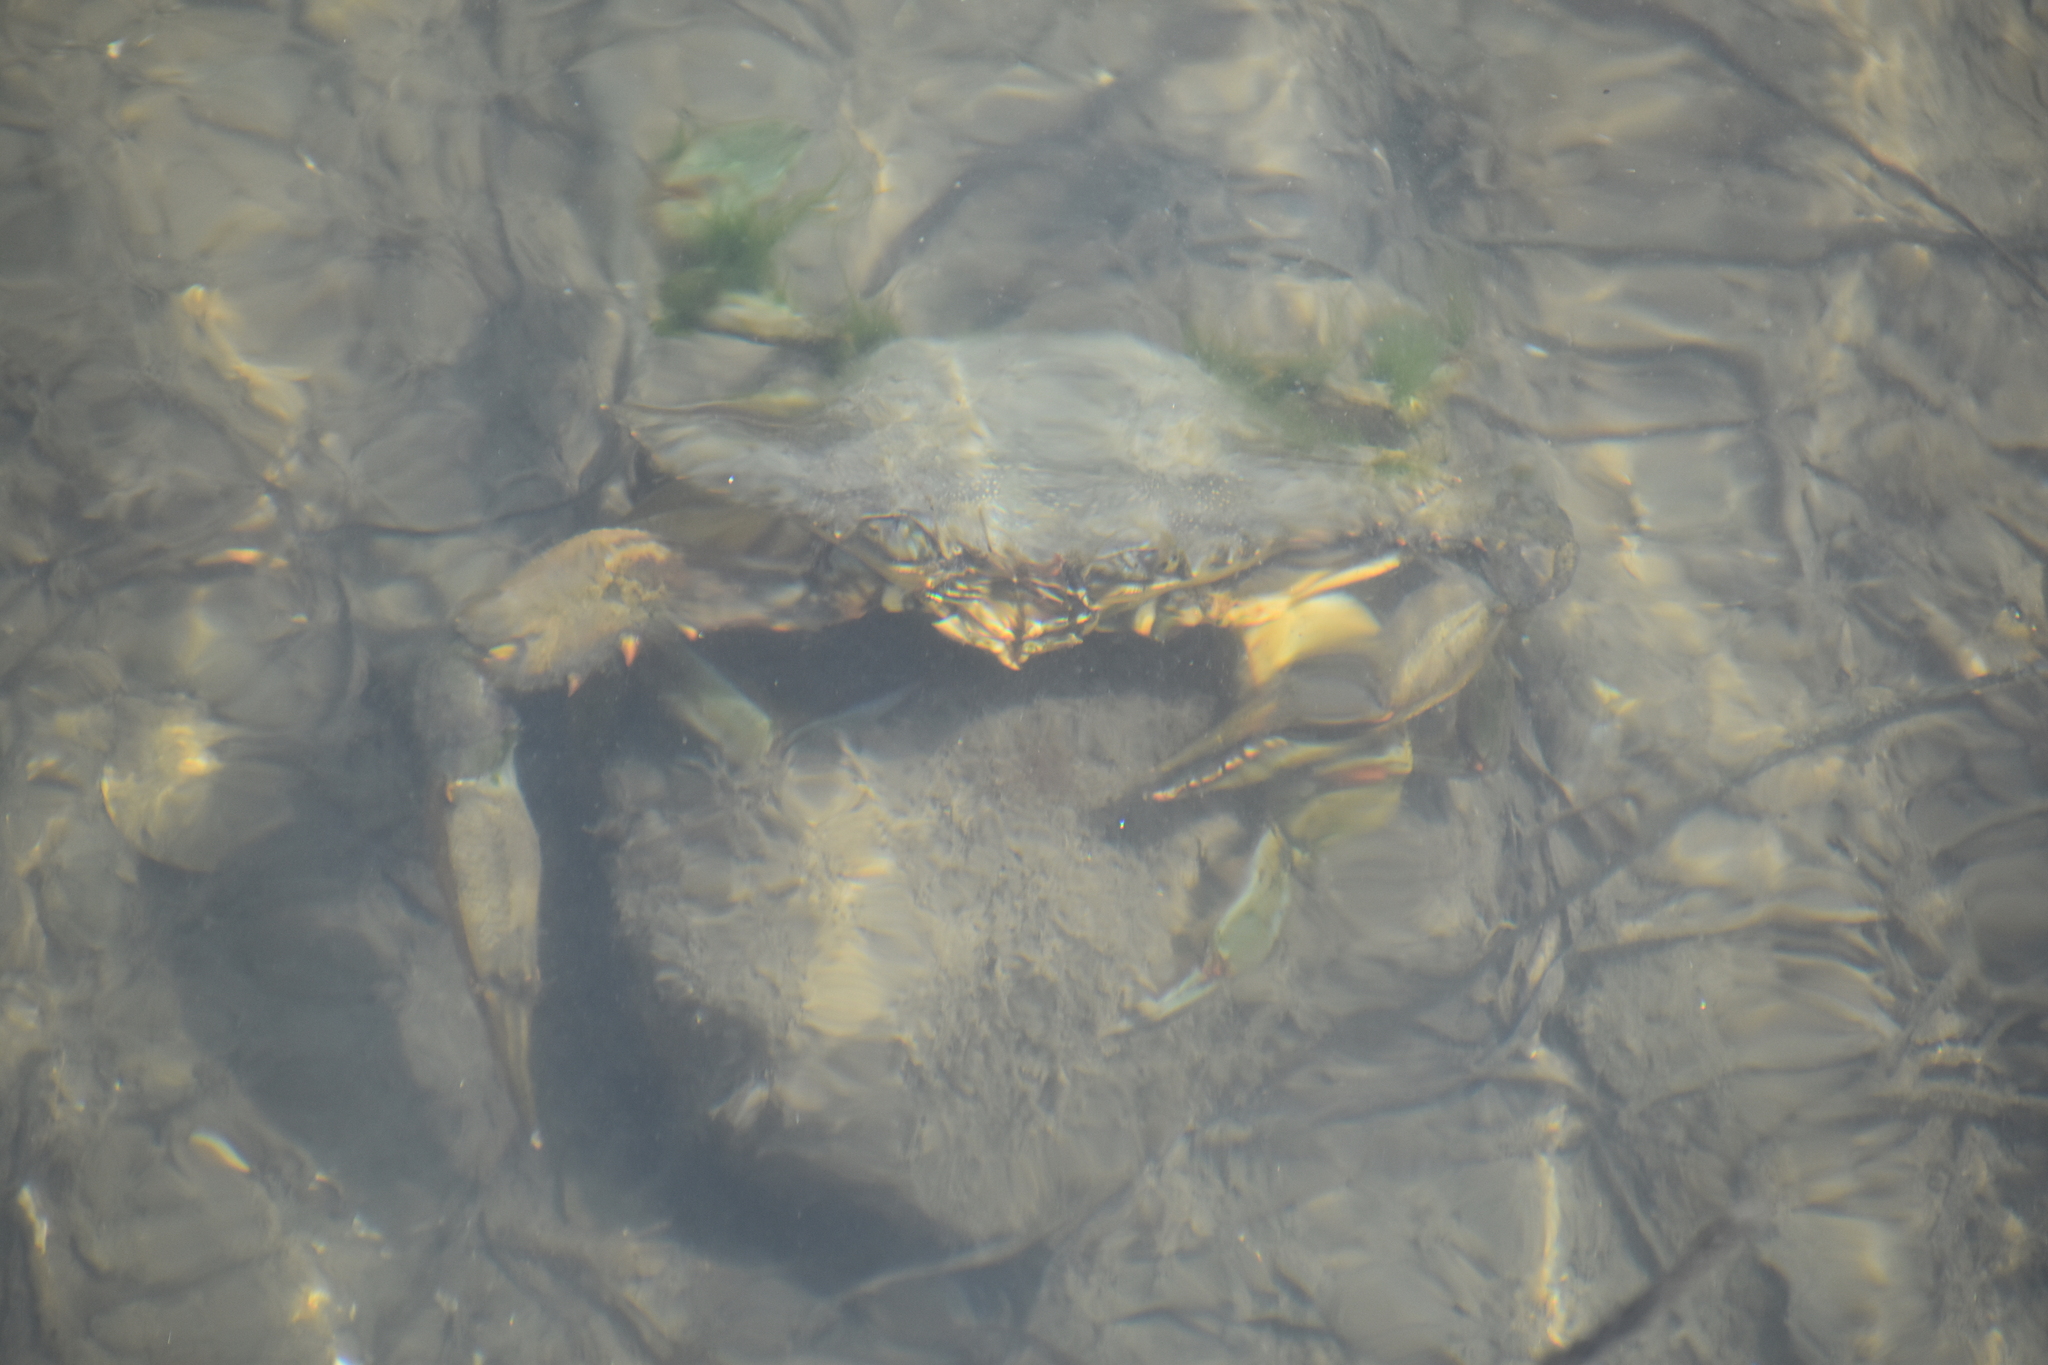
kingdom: Animalia
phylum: Arthropoda
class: Malacostraca
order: Decapoda
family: Portunidae
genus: Callinectes
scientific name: Callinectes sapidus
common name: Blue crab
